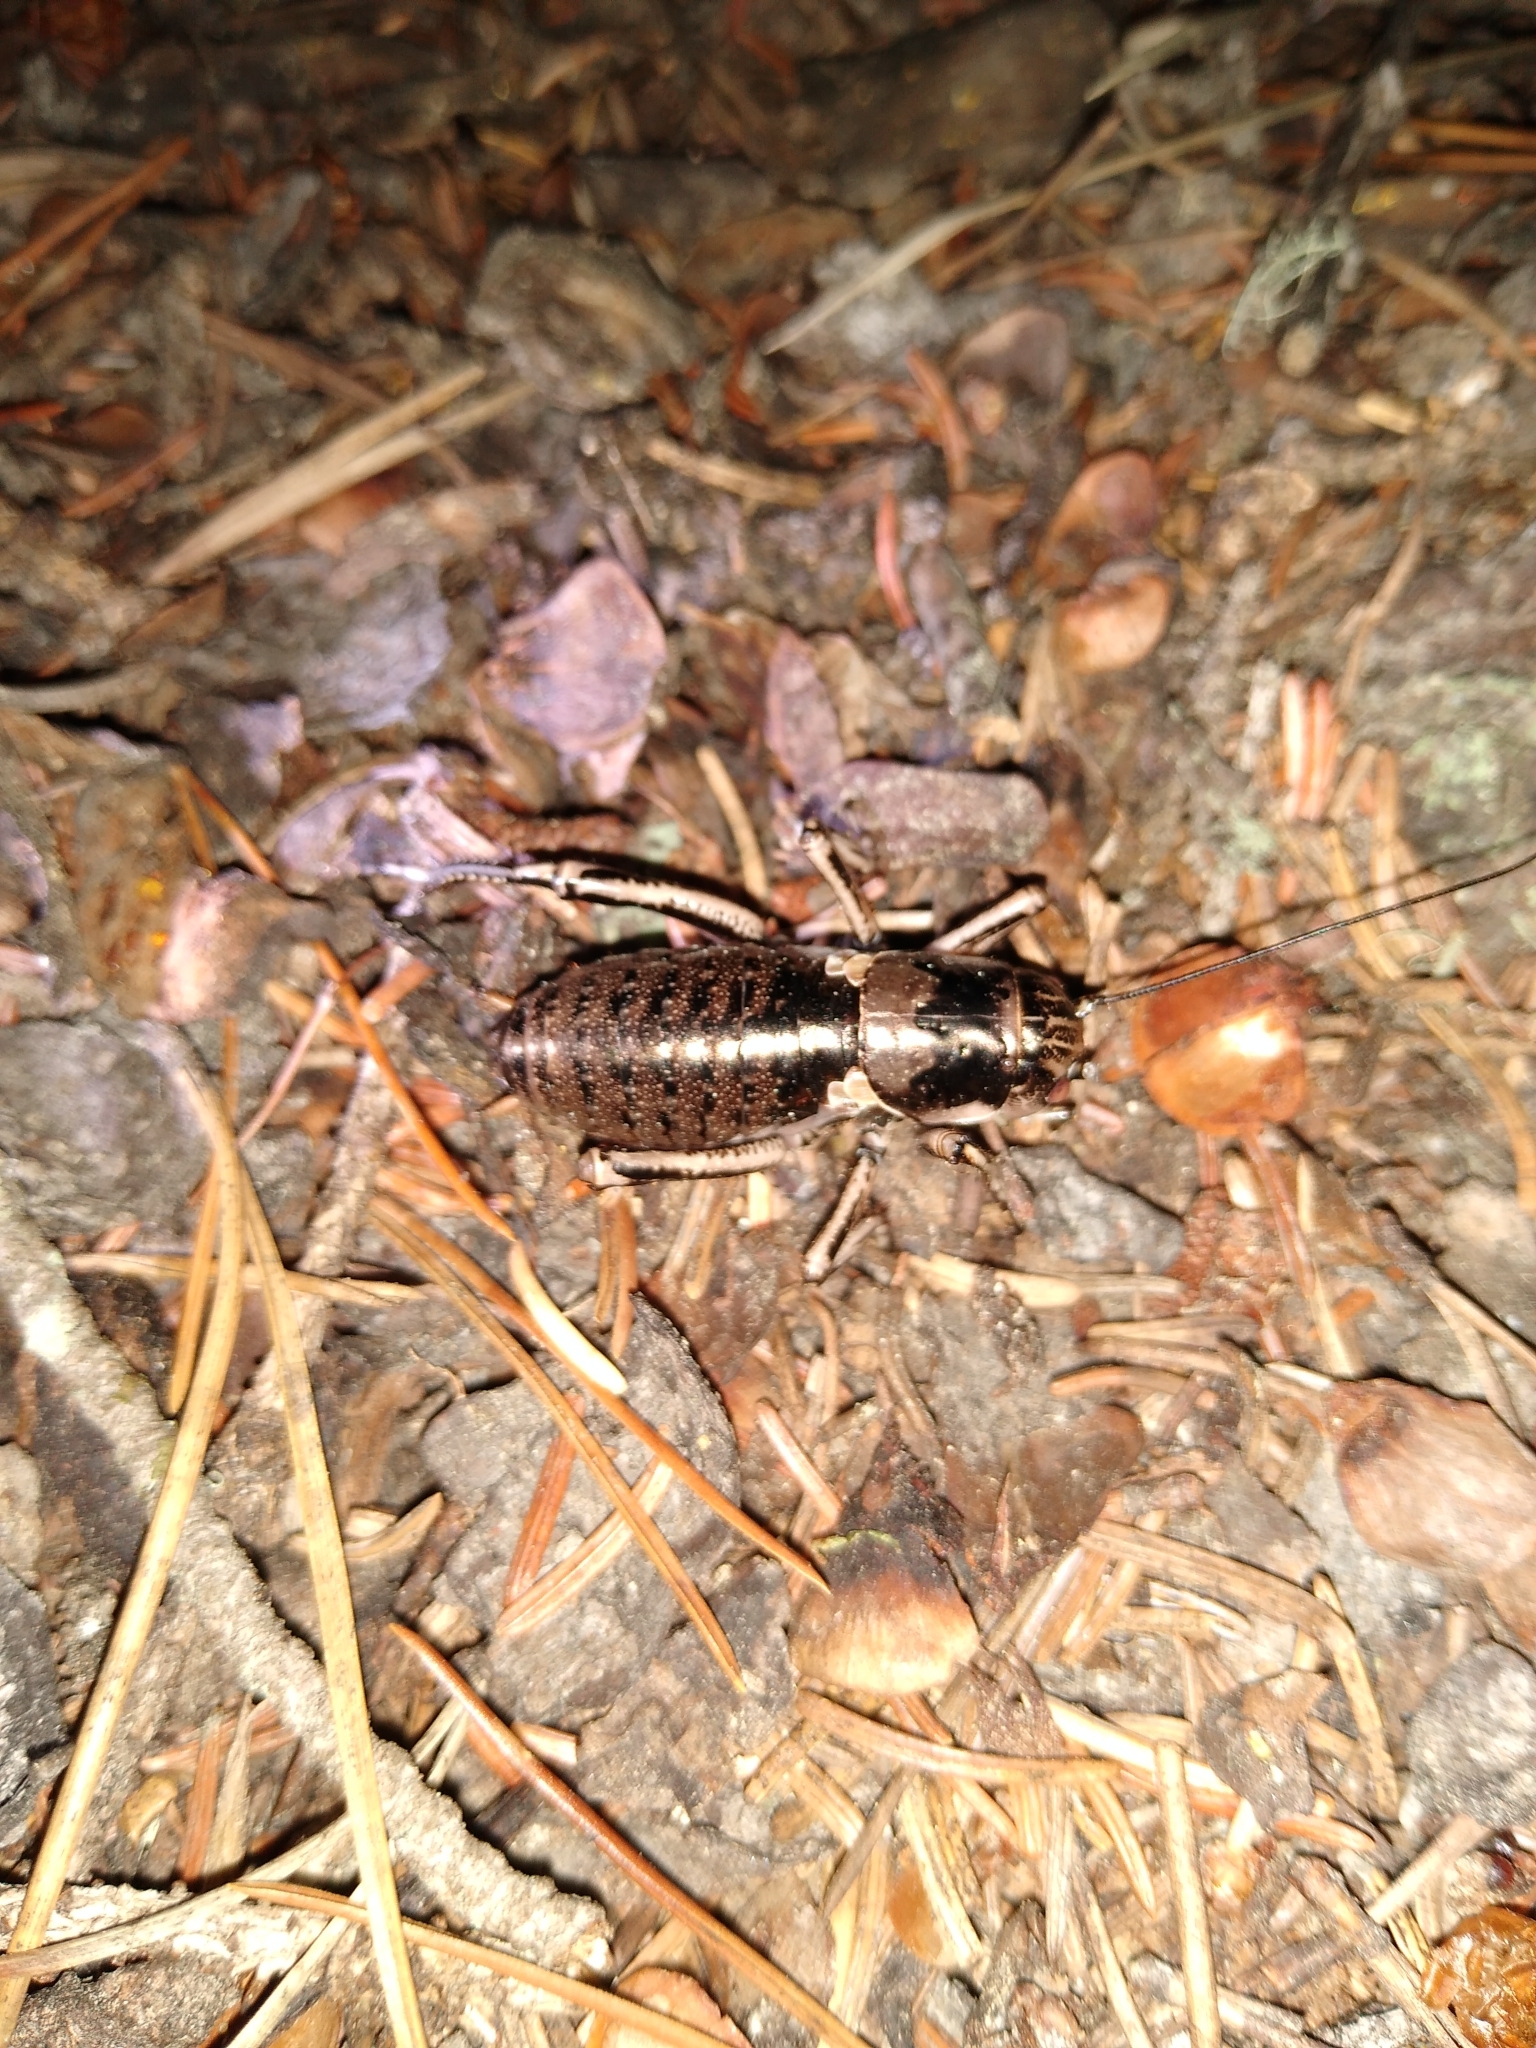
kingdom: Animalia
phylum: Arthropoda
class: Insecta
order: Orthoptera
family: Prophalangopsidae
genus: Cyphoderris
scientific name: Cyphoderris monstrosa
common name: Great grig
